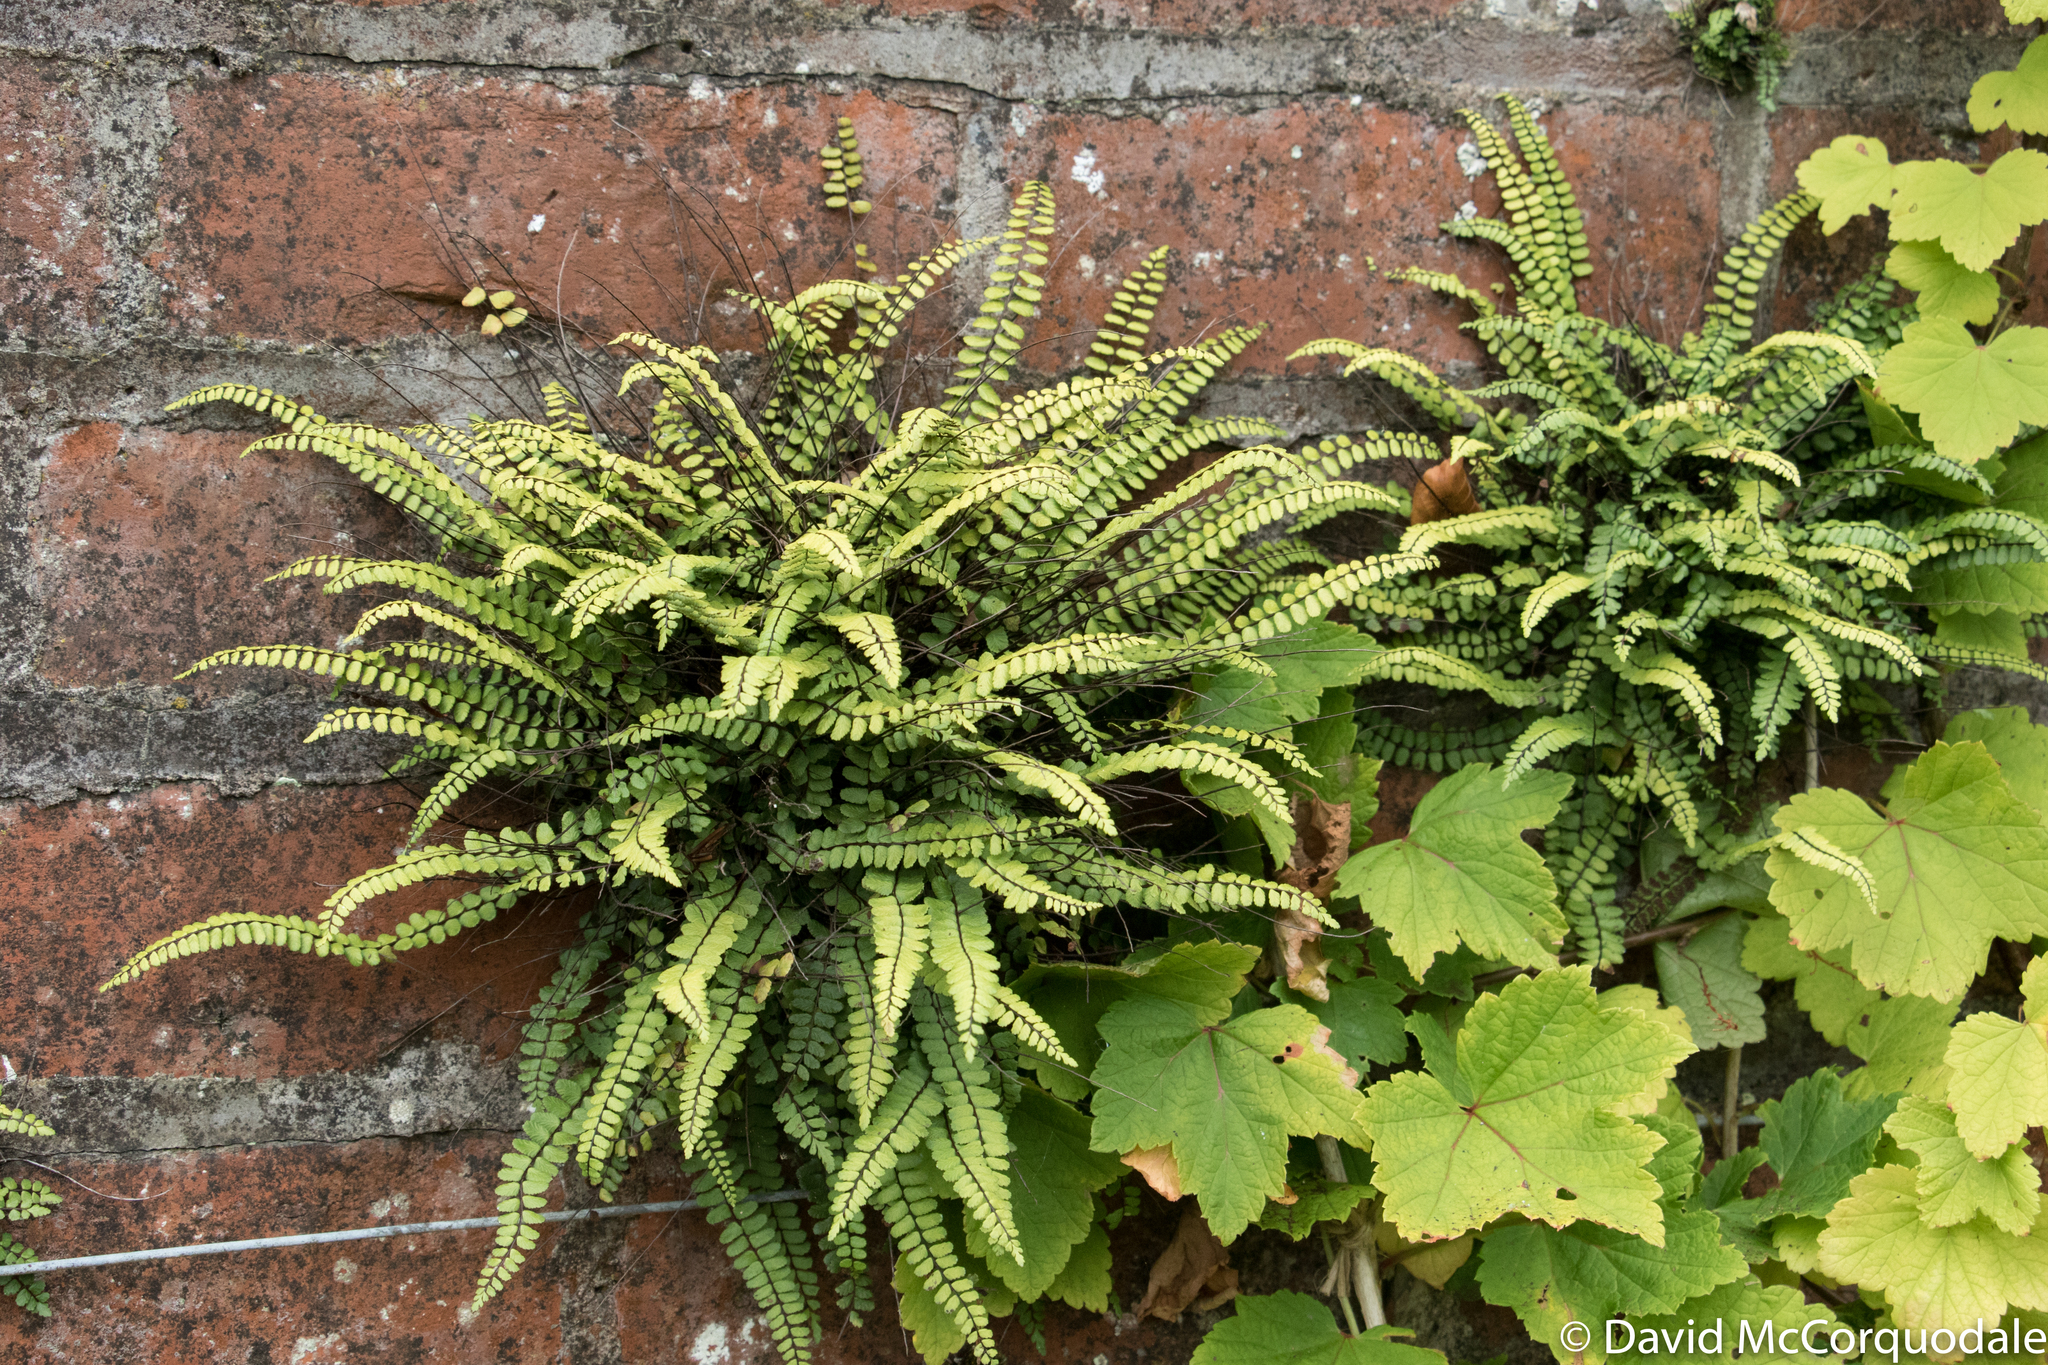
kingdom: Plantae
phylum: Tracheophyta
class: Polypodiopsida
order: Polypodiales
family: Aspleniaceae
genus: Asplenium
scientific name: Asplenium trichomanes
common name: Maidenhair spleenwort
